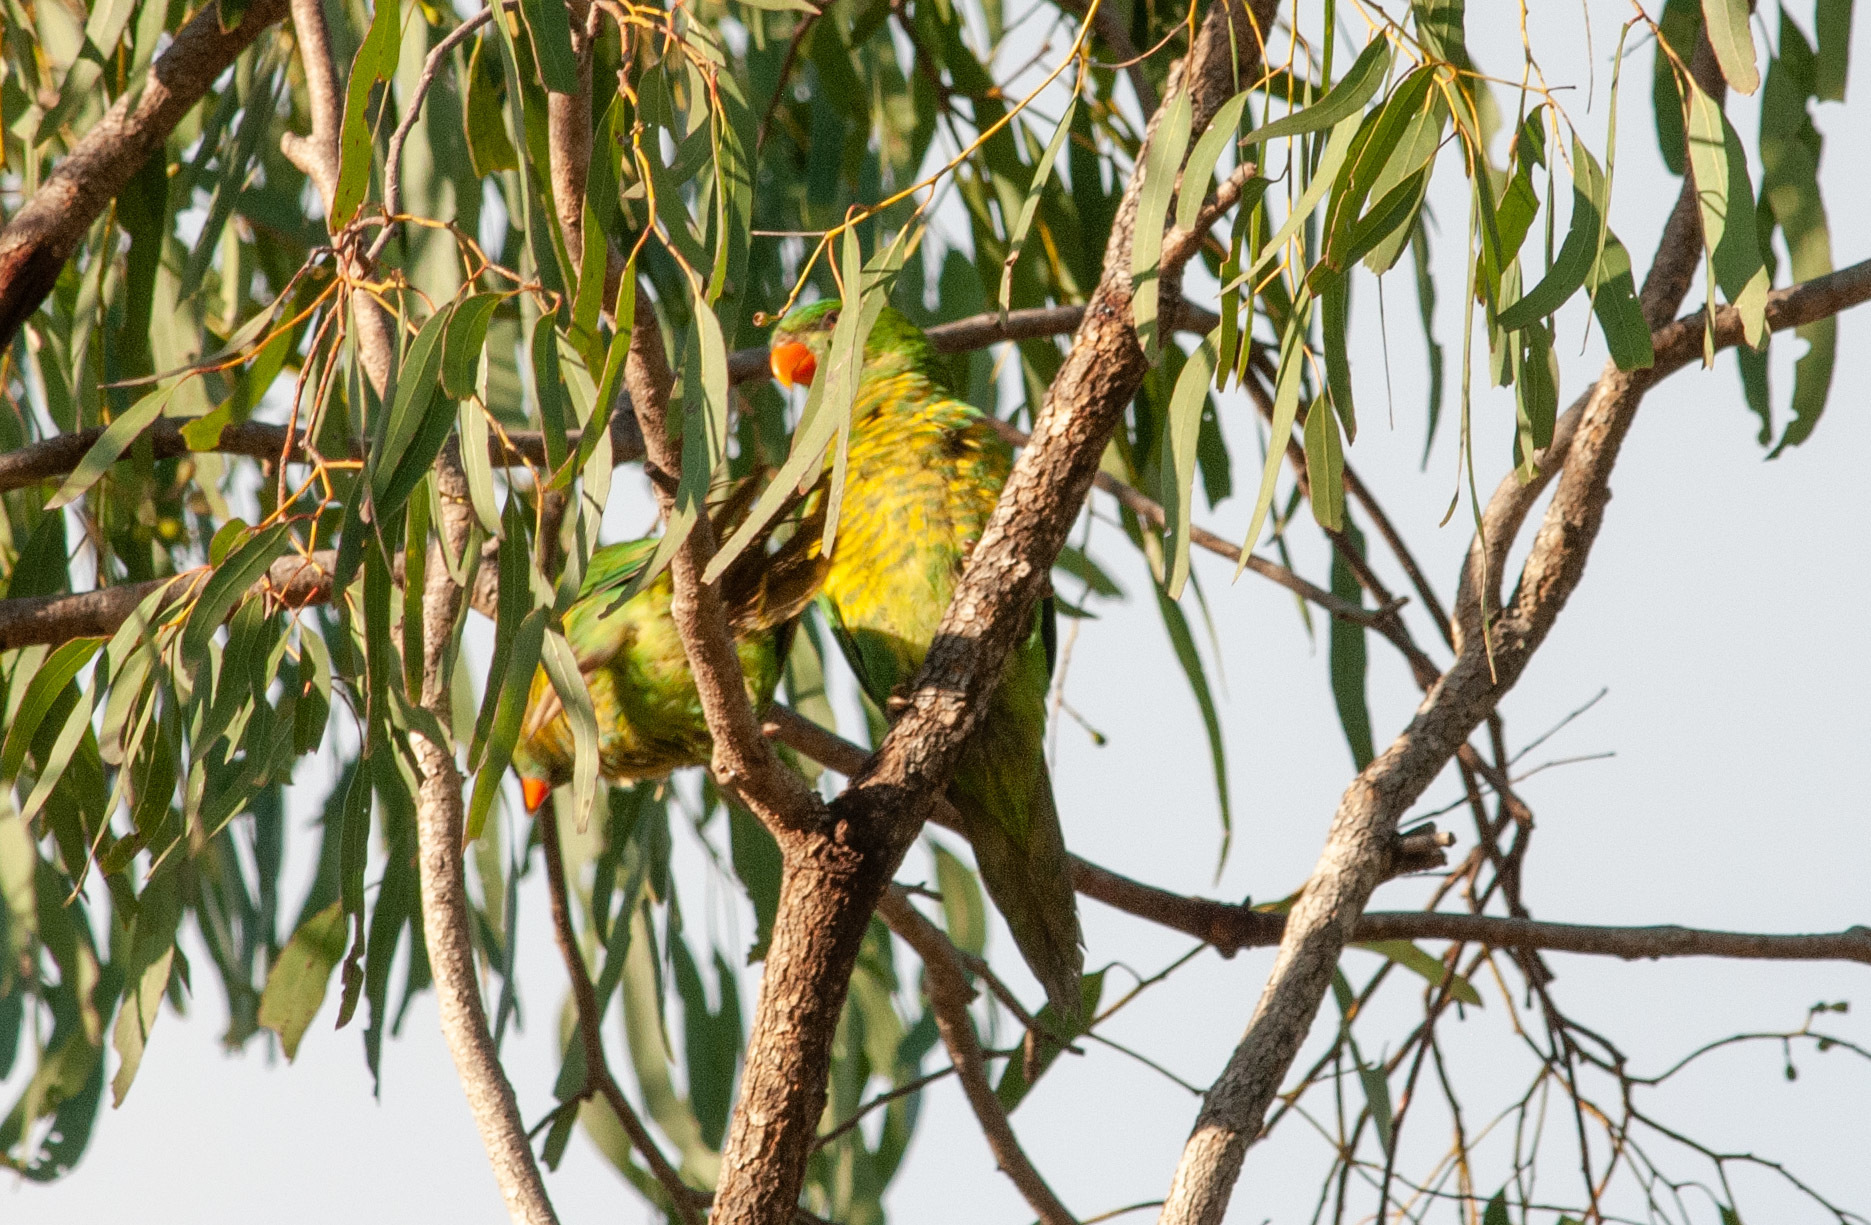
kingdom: Animalia
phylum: Chordata
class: Aves
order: Psittaciformes
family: Psittacidae
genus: Trichoglossus
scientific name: Trichoglossus chlorolepidotus
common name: Scaly-breasted lorikeet
